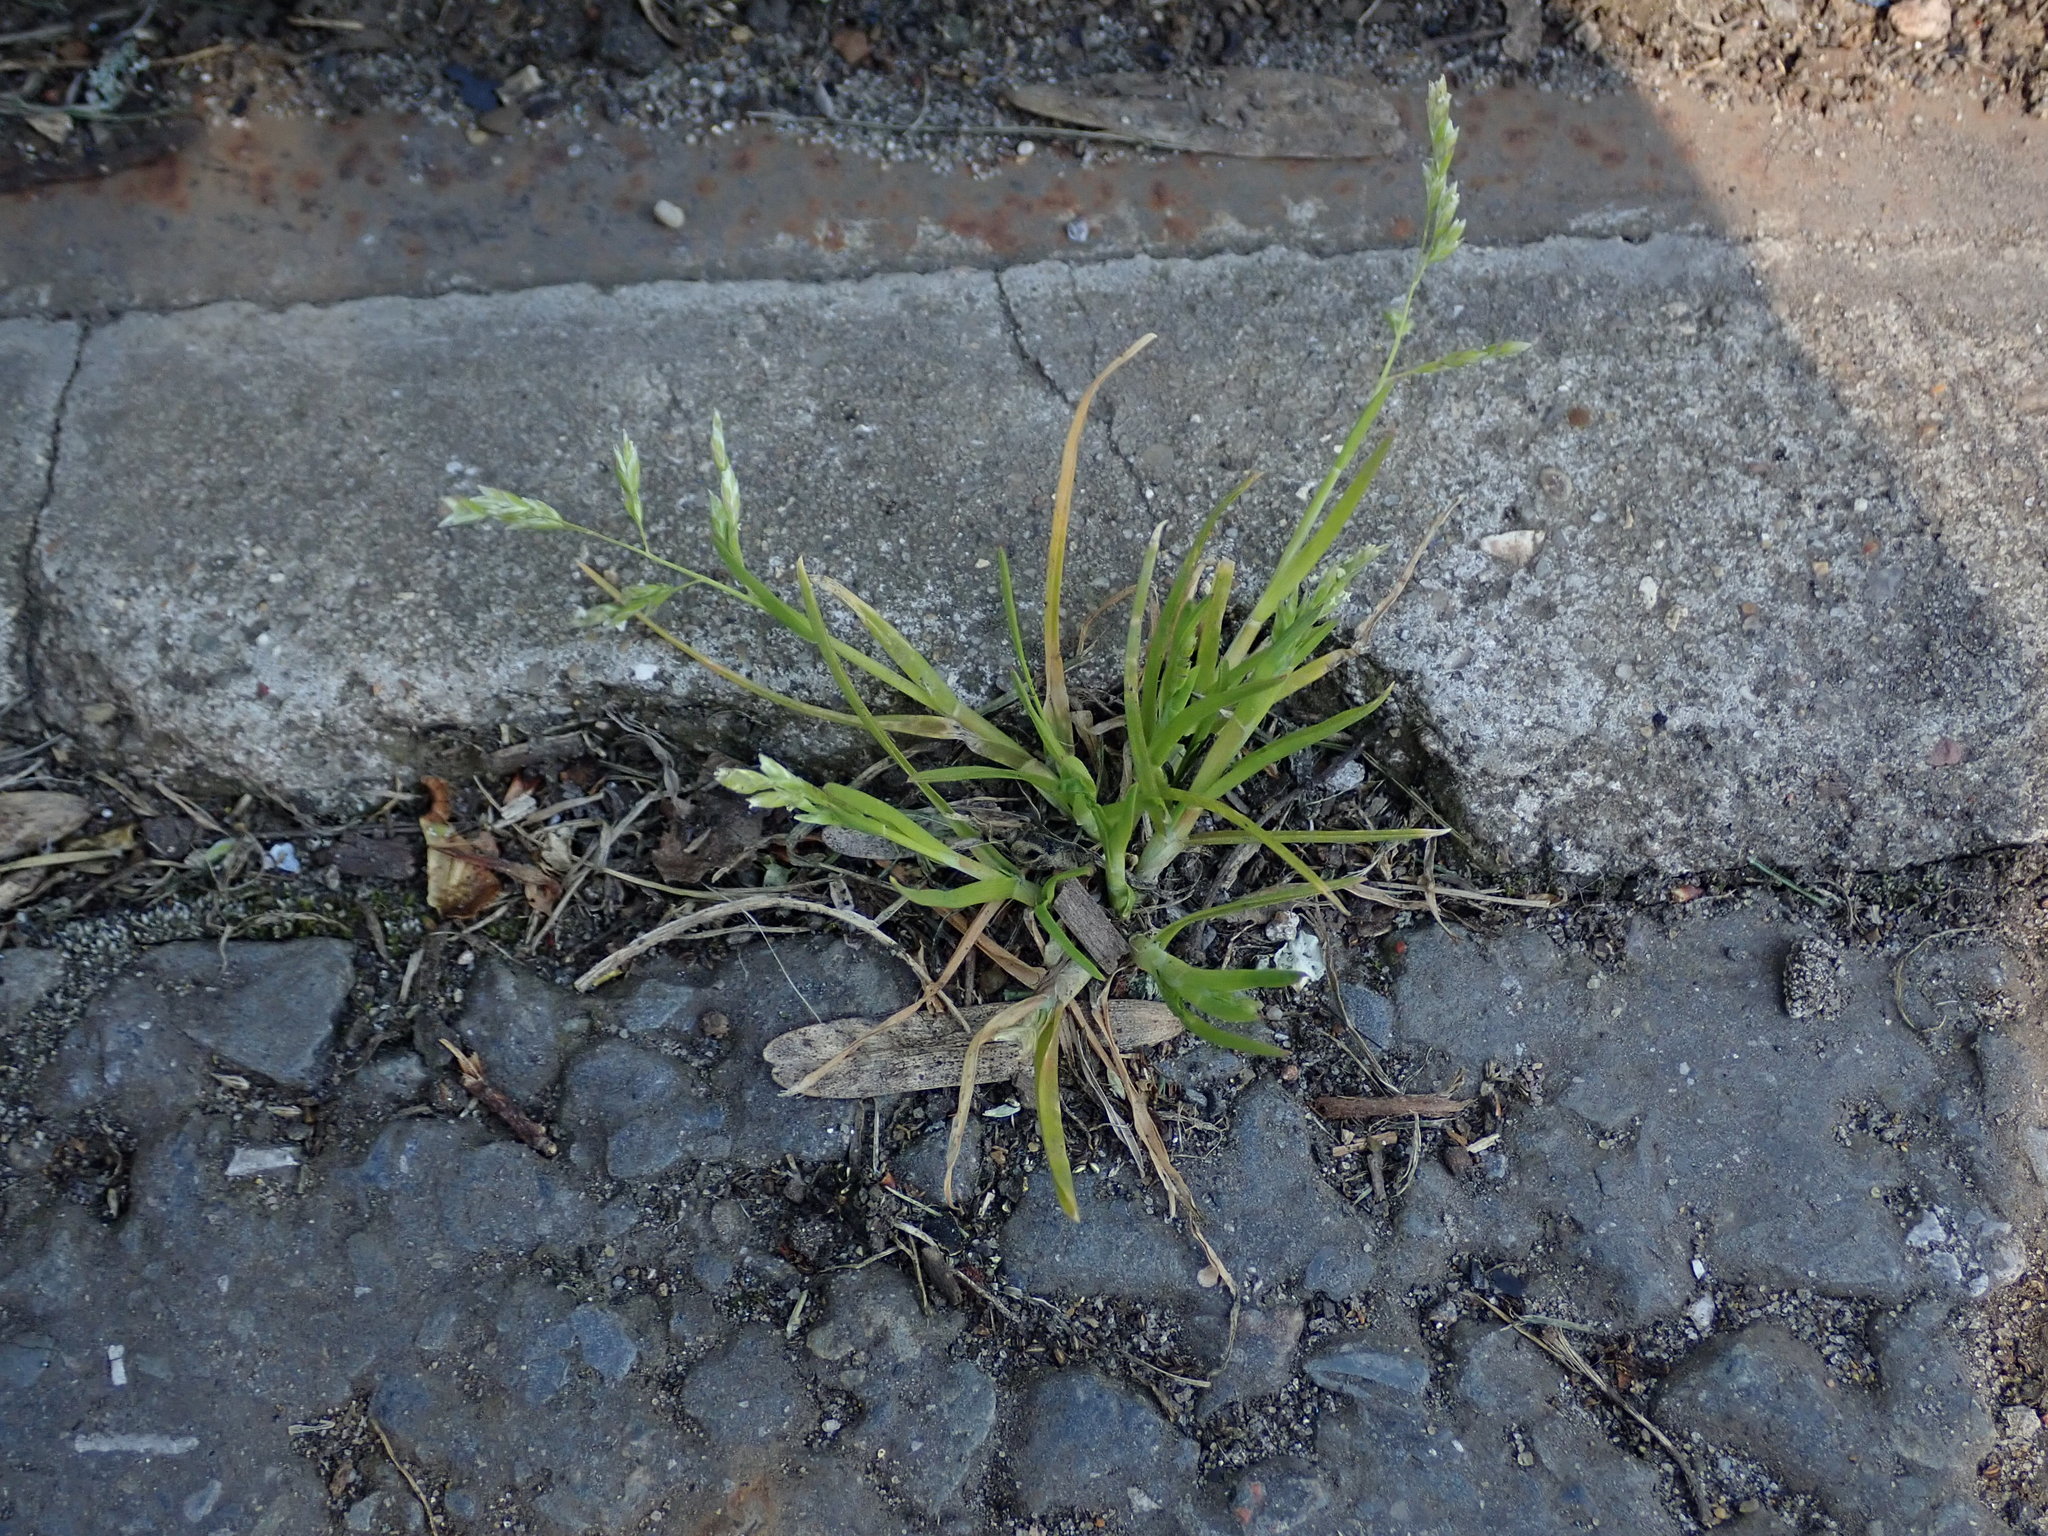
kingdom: Plantae
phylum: Tracheophyta
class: Liliopsida
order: Poales
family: Poaceae
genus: Poa
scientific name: Poa annua
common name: Annual bluegrass
